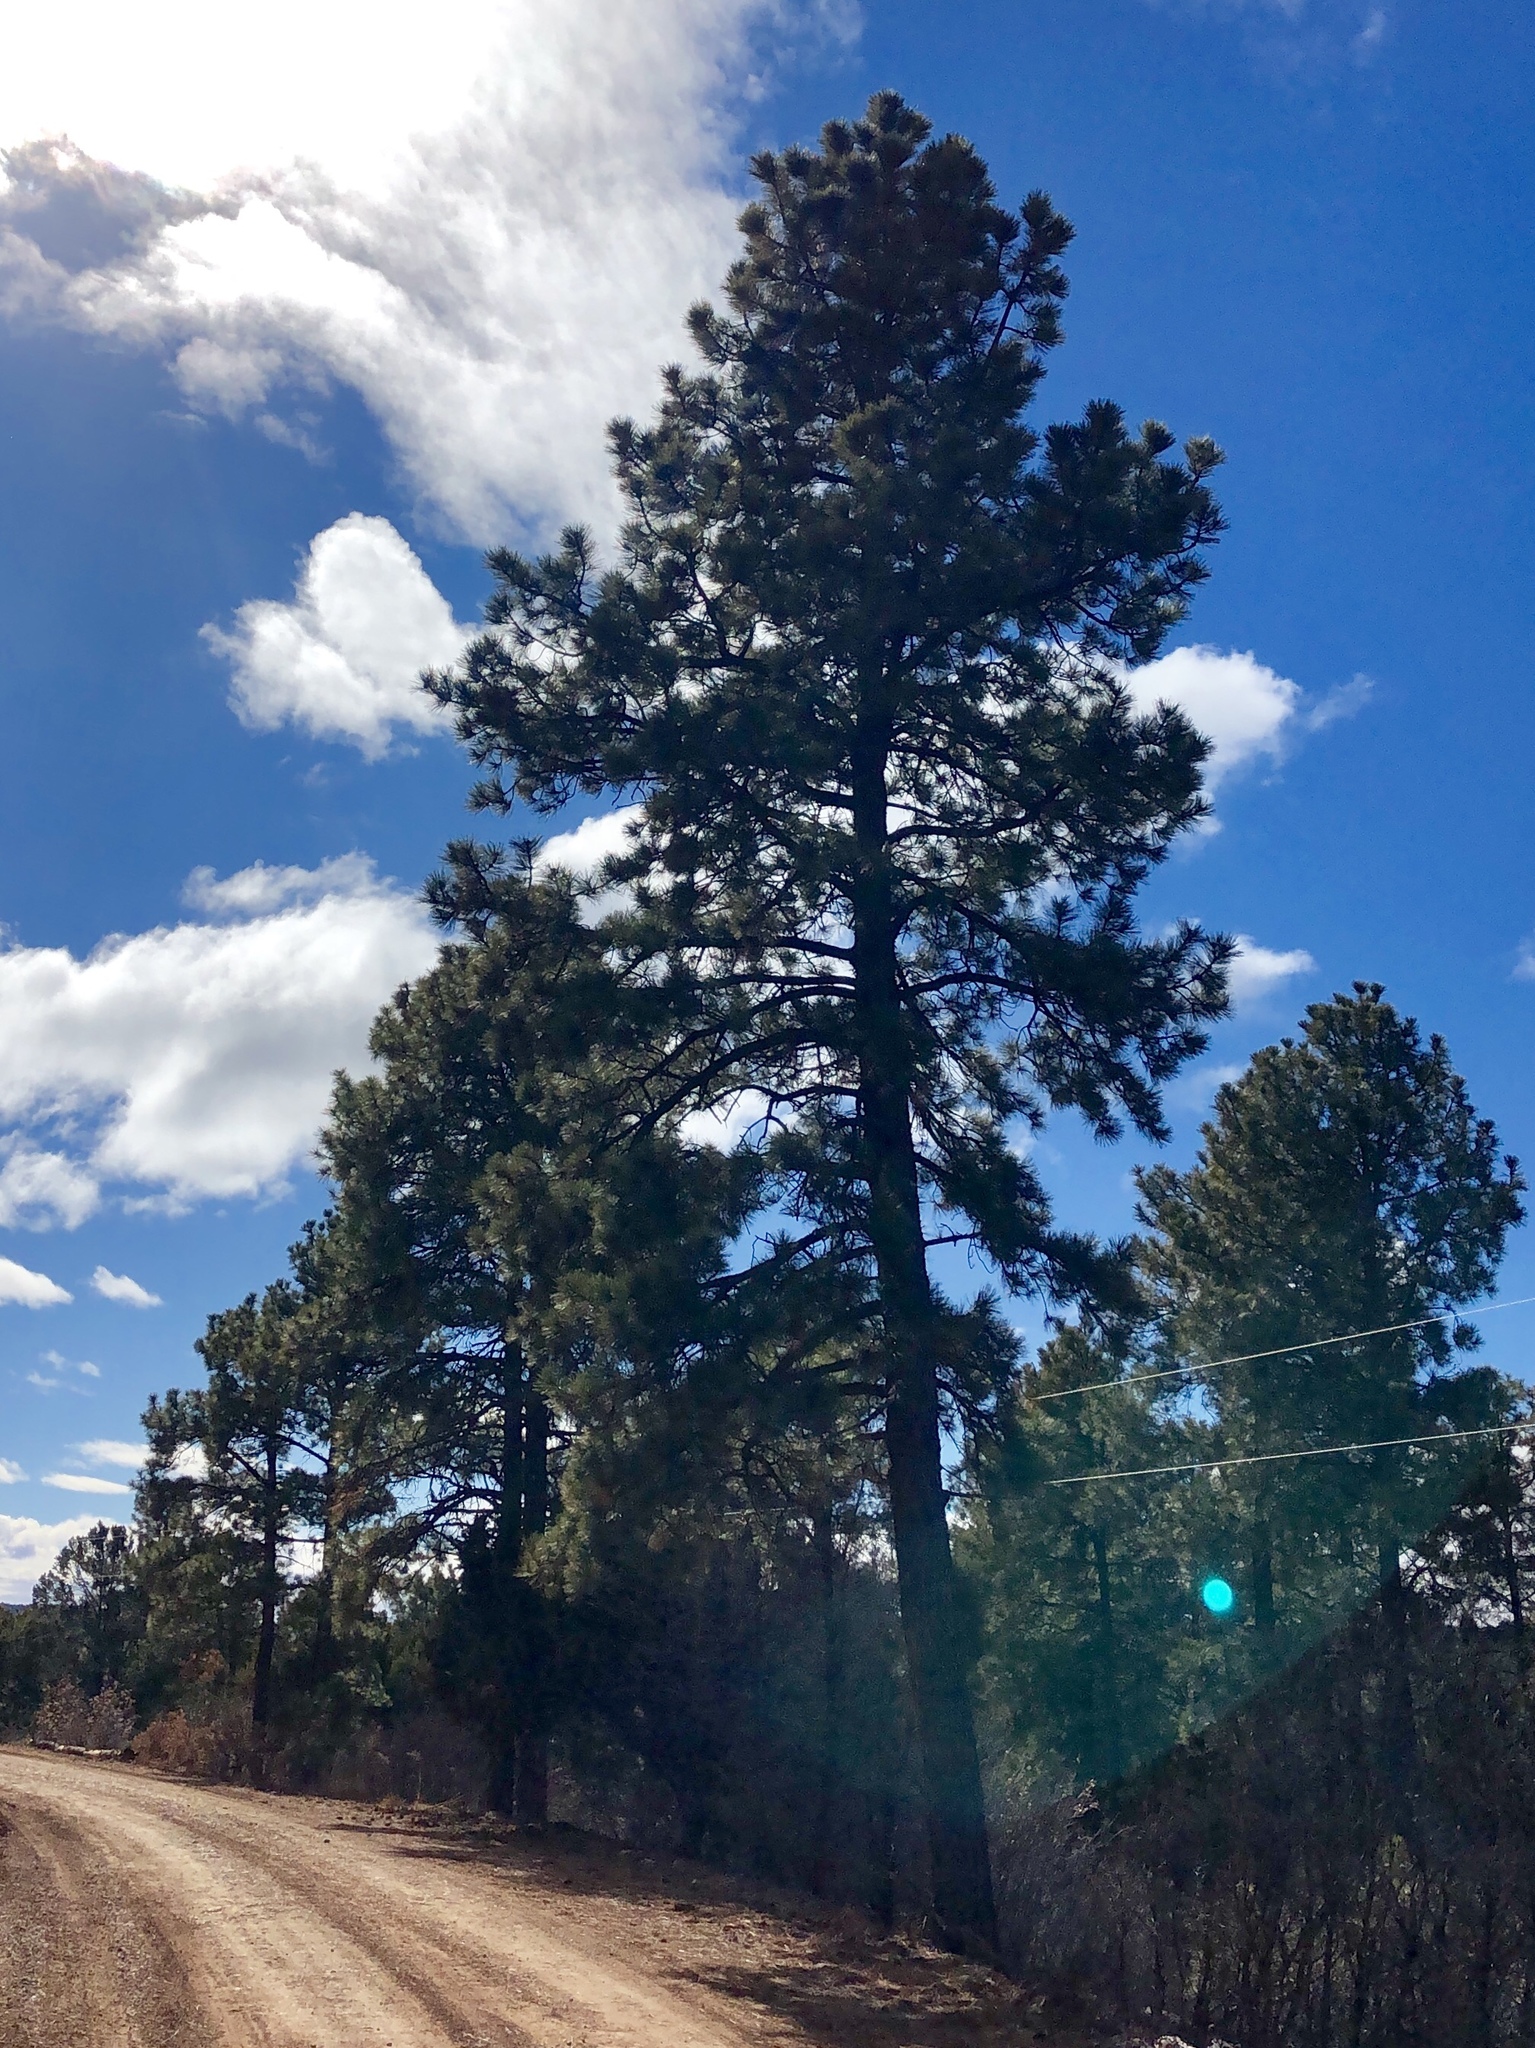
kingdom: Plantae
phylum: Tracheophyta
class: Pinopsida
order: Pinales
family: Pinaceae
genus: Pinus
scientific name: Pinus ponderosa
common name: Western yellow-pine
